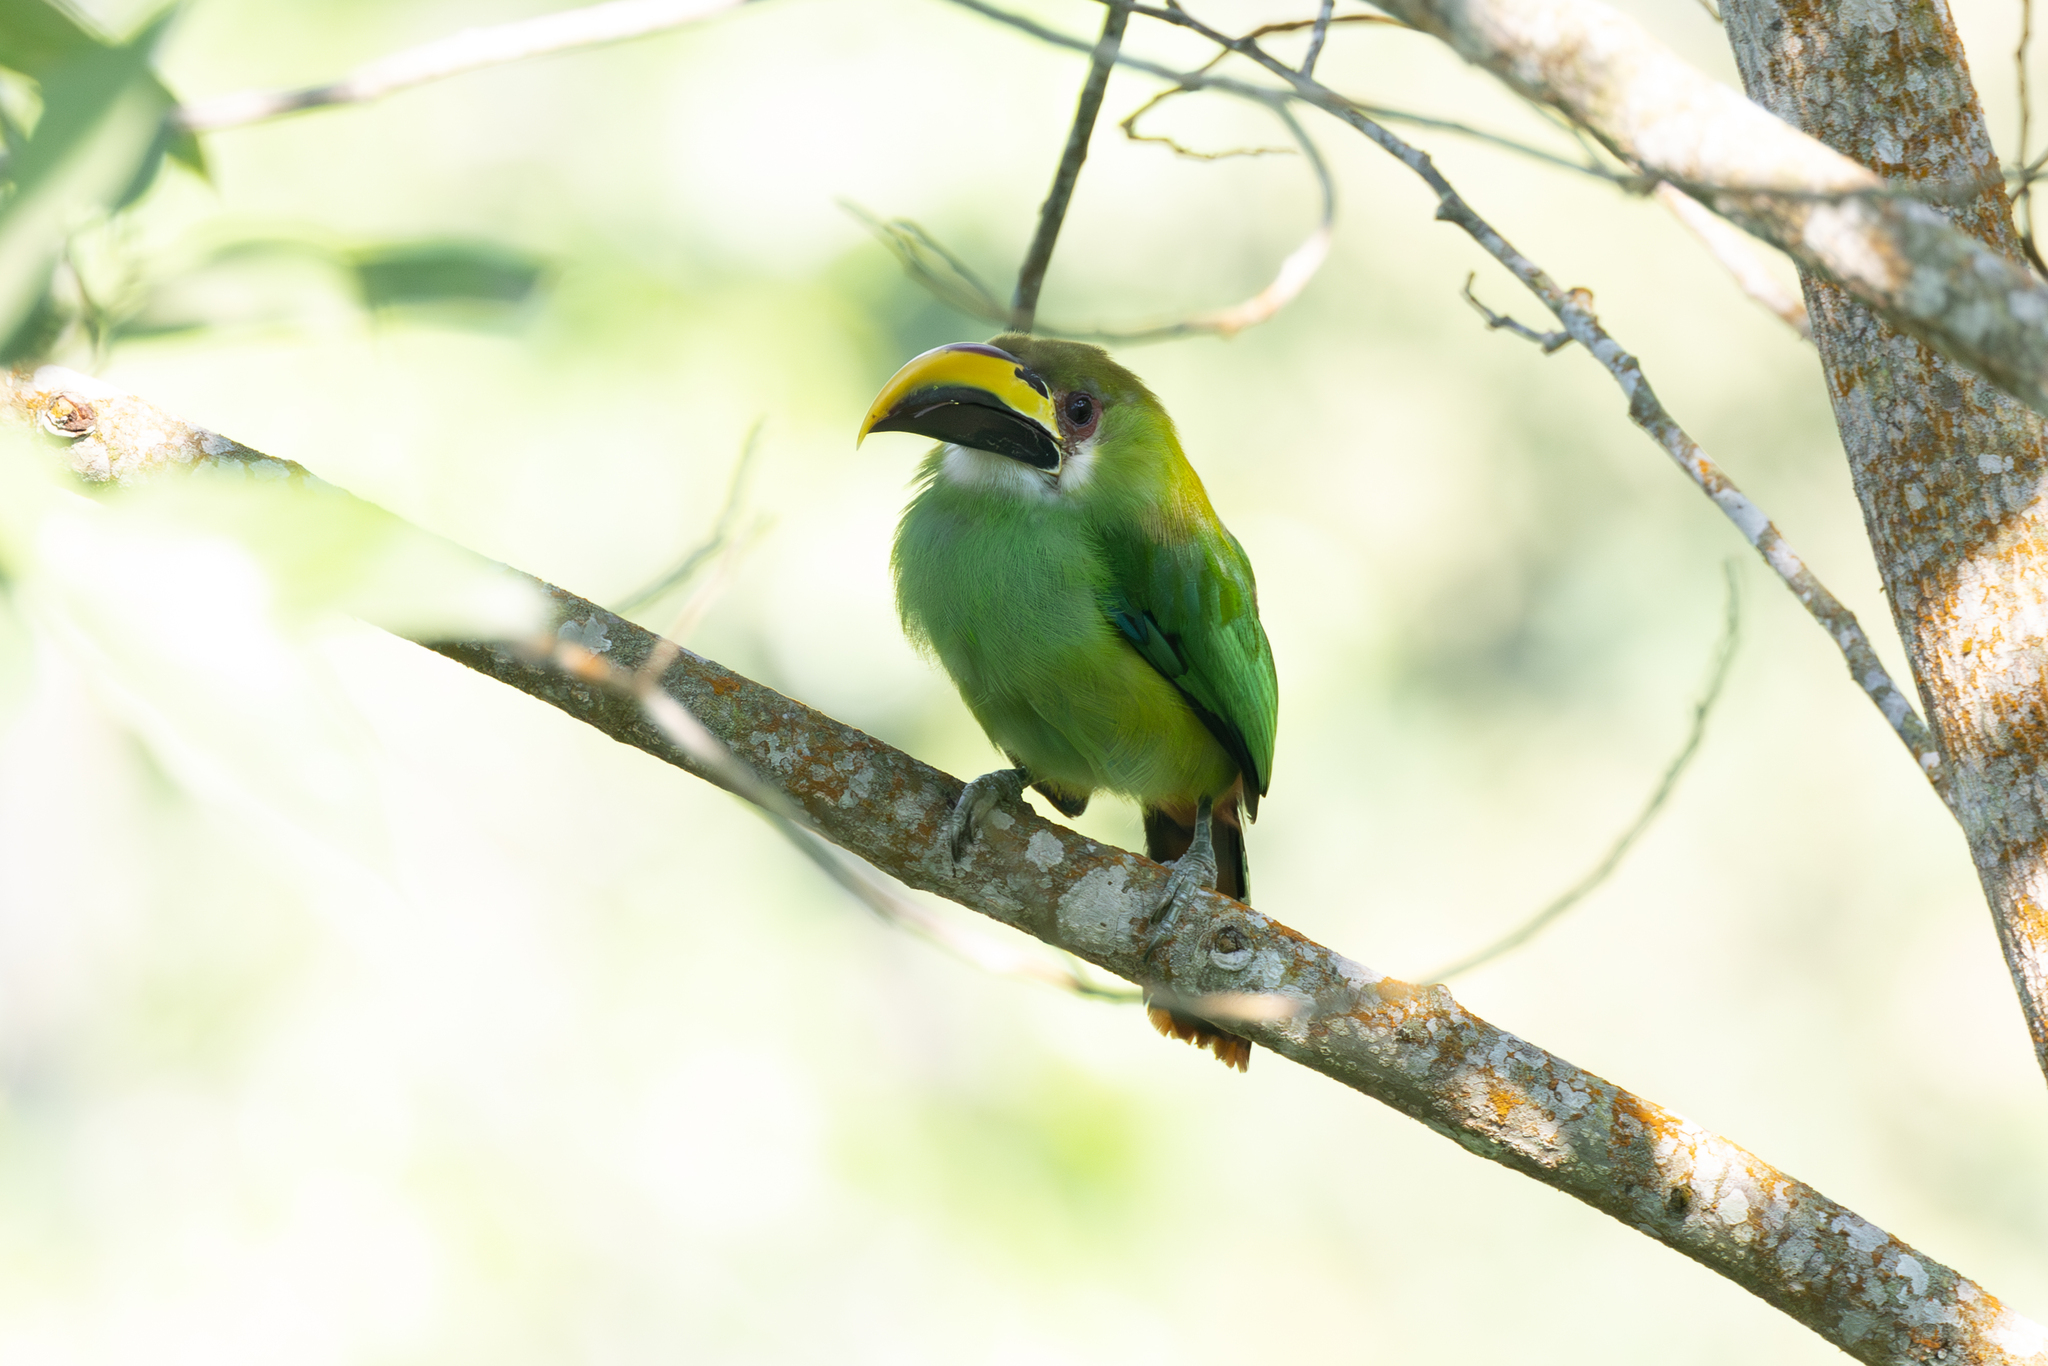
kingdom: Animalia
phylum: Chordata
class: Aves
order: Piciformes
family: Ramphastidae
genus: Aulacorhynchus
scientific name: Aulacorhynchus prasinus
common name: Emerald toucanet
